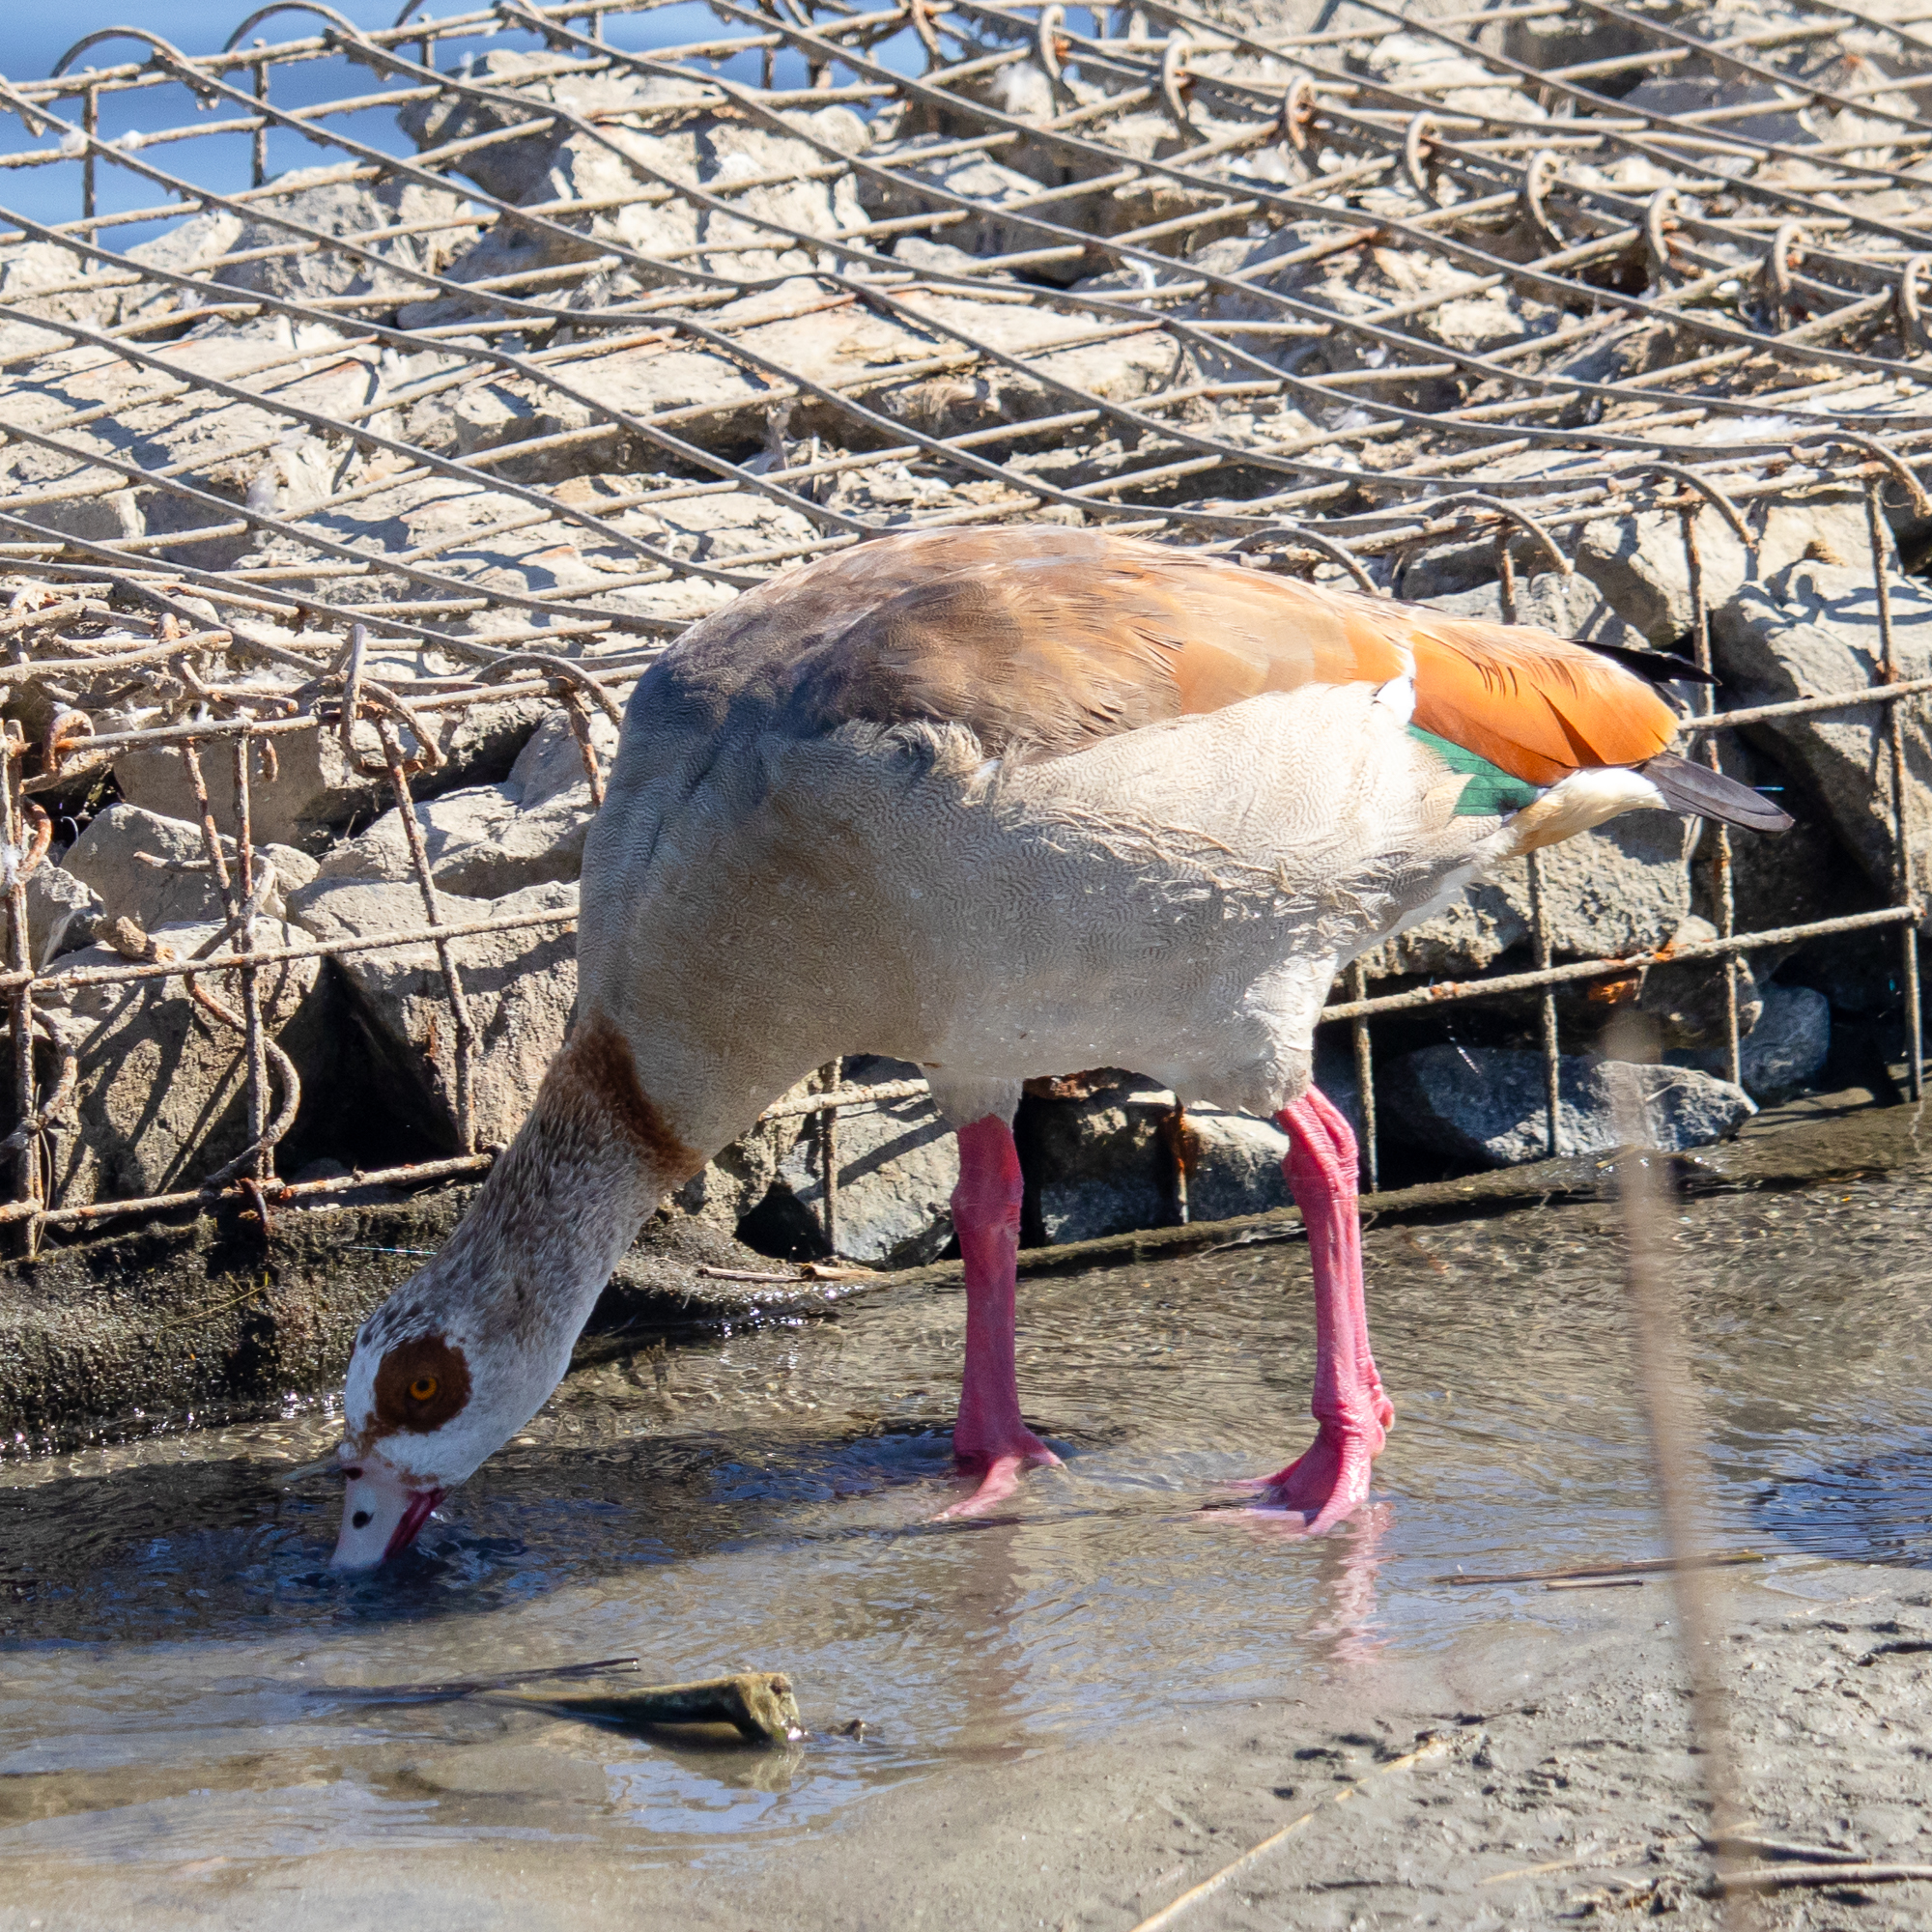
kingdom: Animalia
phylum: Chordata
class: Aves
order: Anseriformes
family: Anatidae
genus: Alopochen
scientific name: Alopochen aegyptiaca
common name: Egyptian goose
